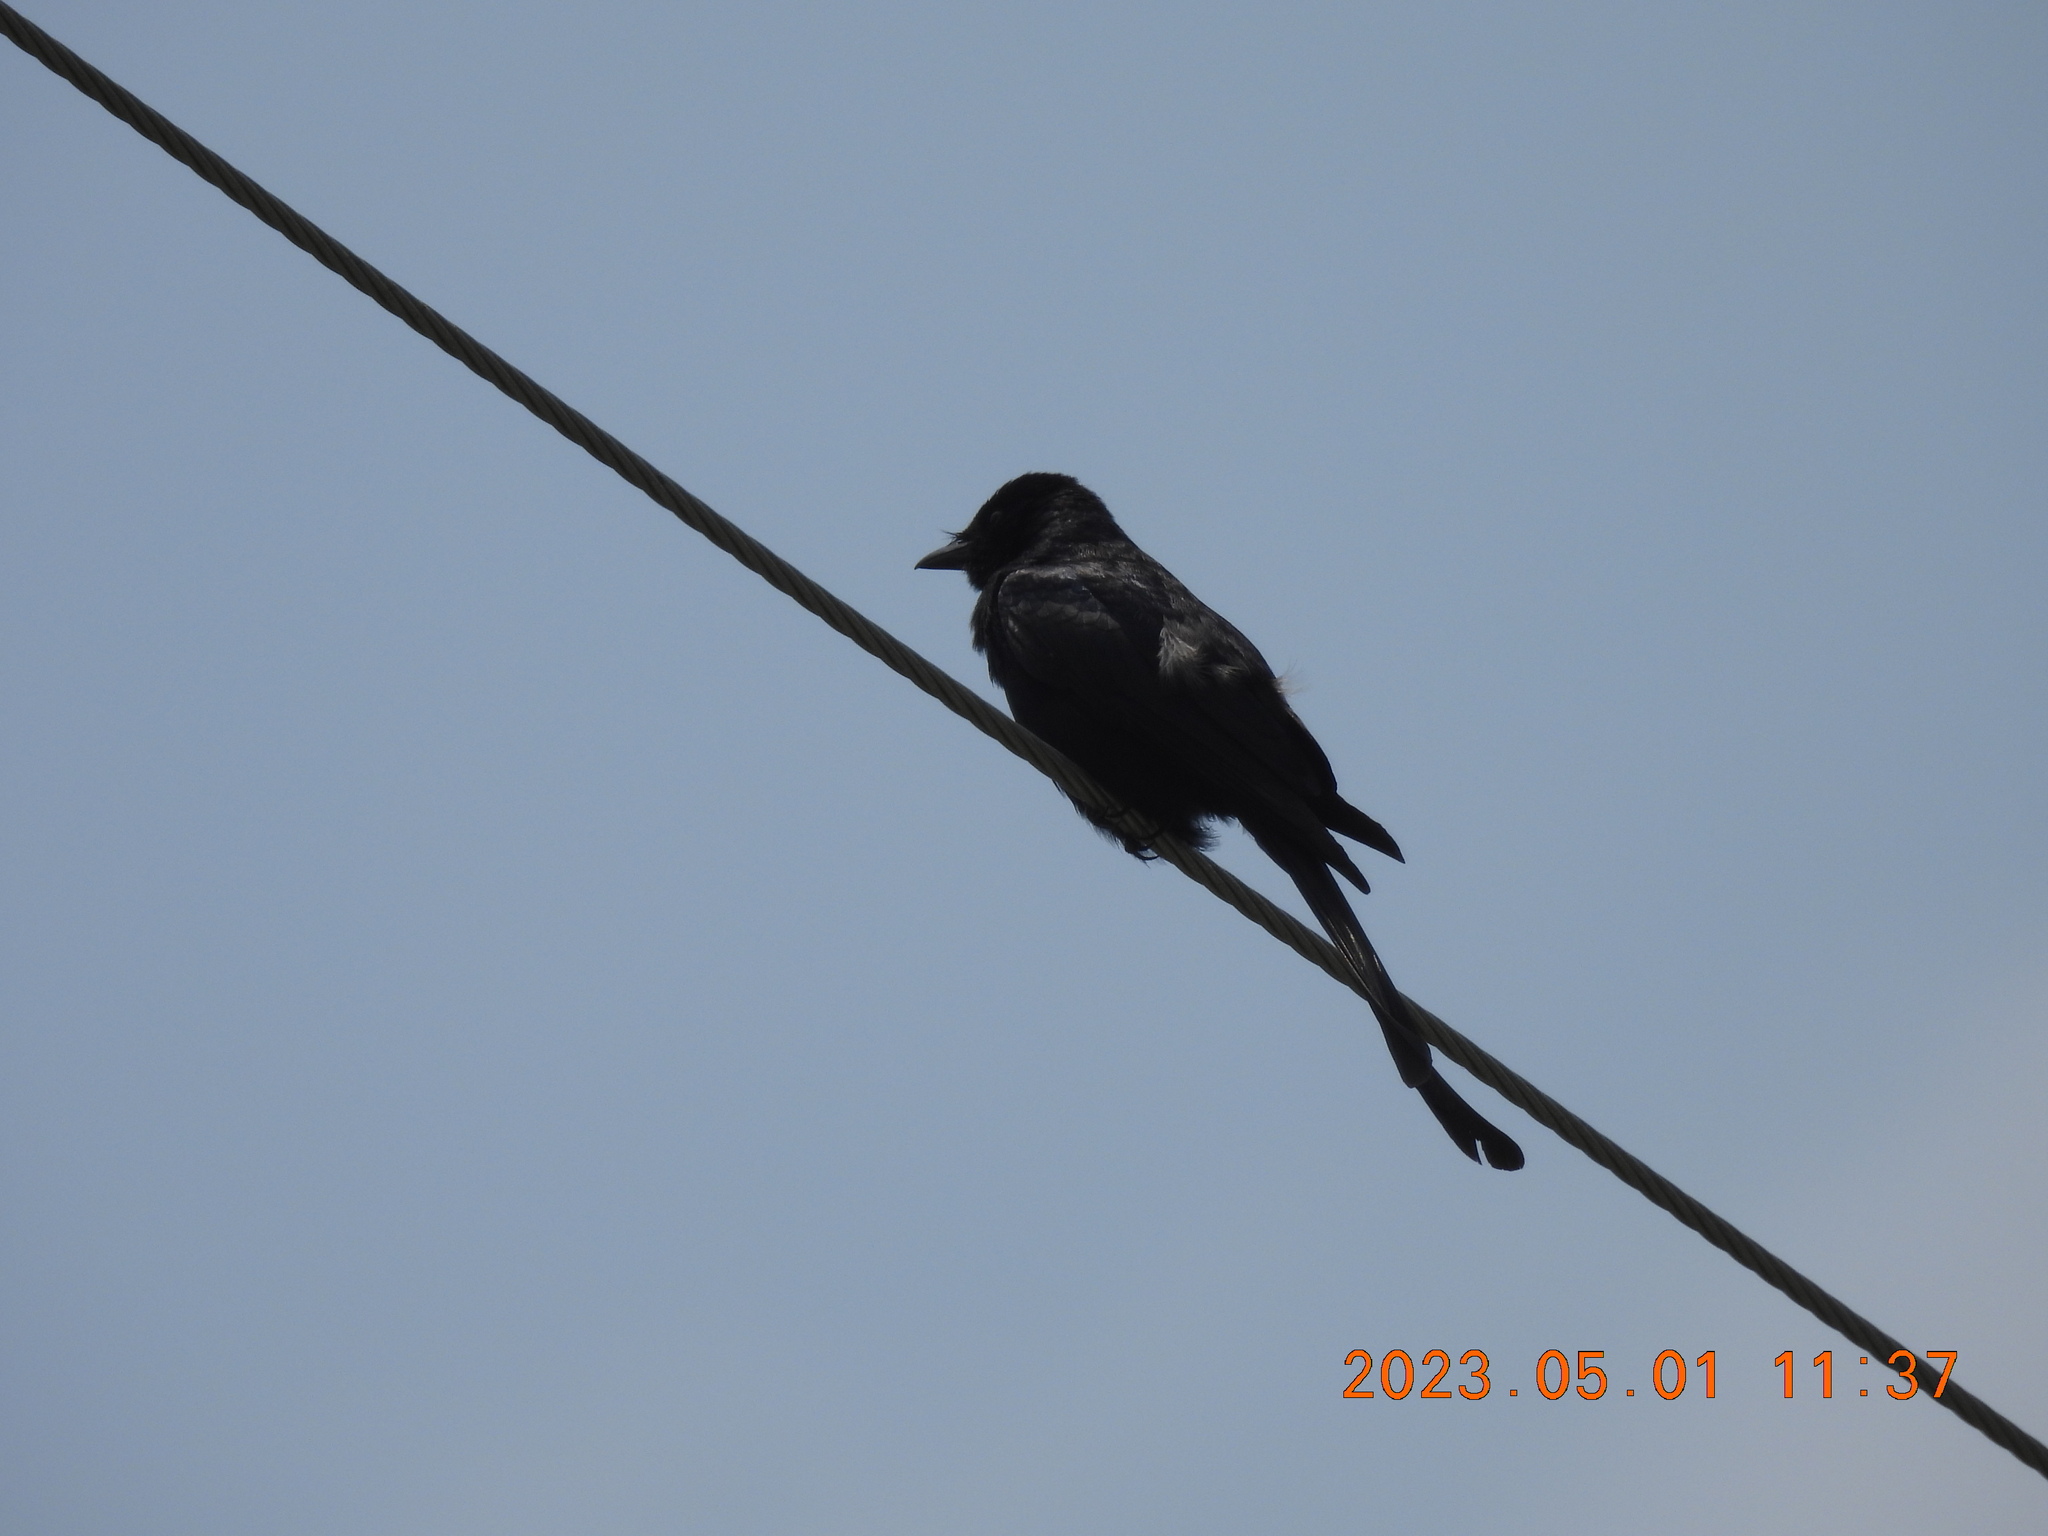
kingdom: Animalia
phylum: Chordata
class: Aves
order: Passeriformes
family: Dicruridae
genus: Dicrurus
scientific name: Dicrurus macrocercus
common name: Black drongo
